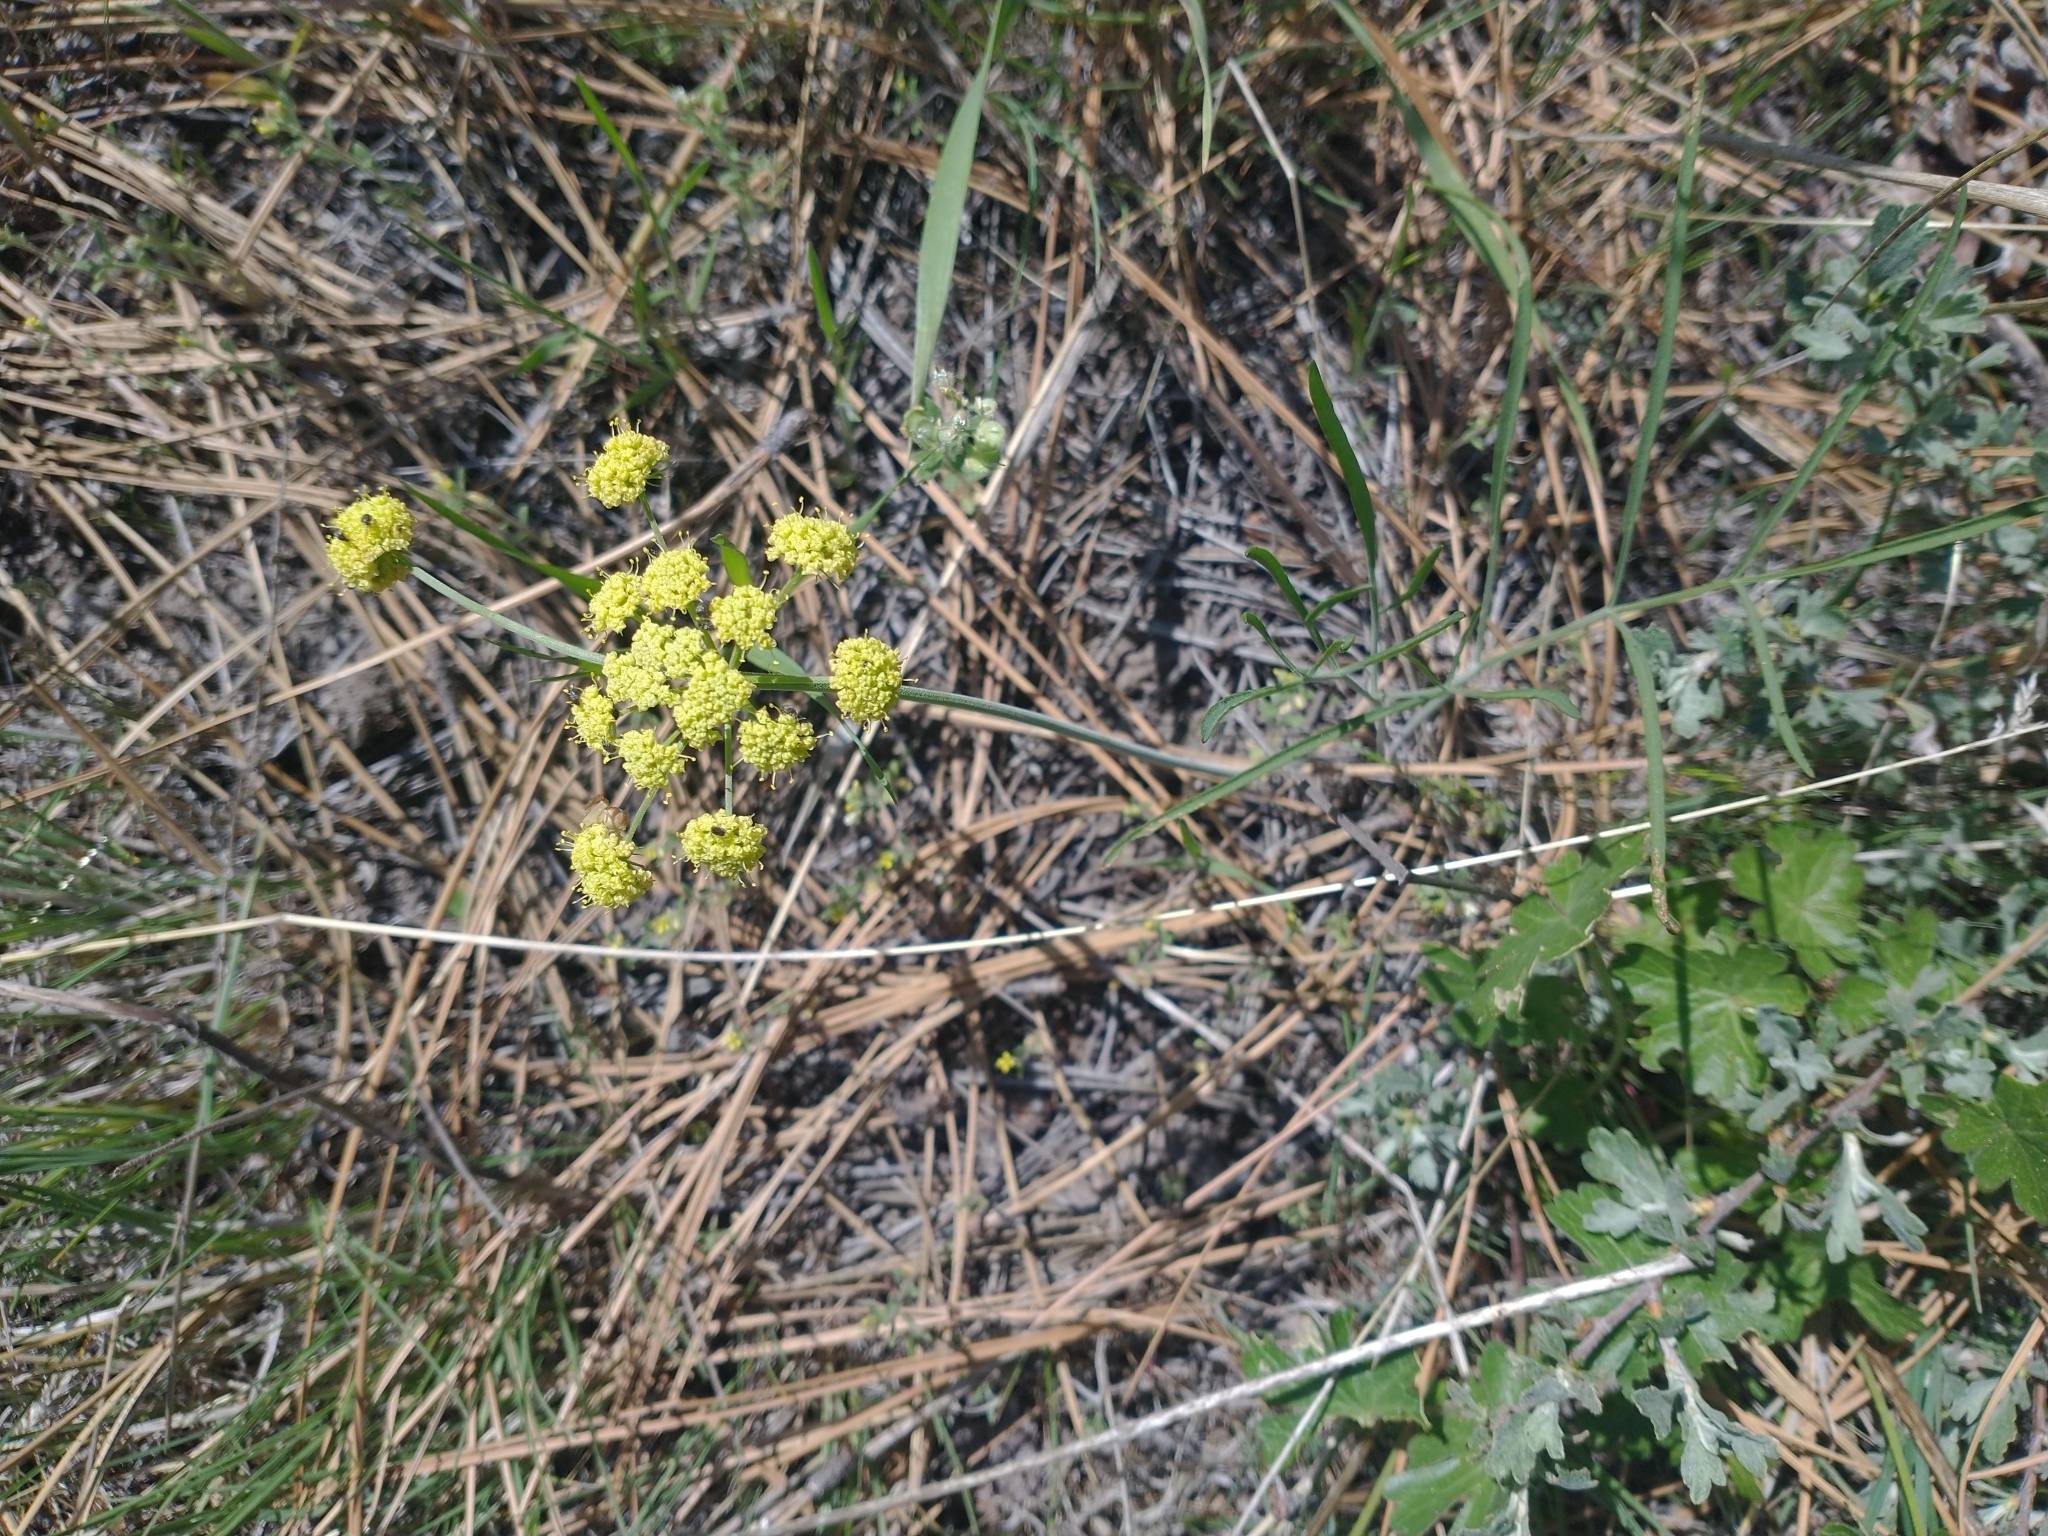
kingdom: Plantae
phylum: Tracheophyta
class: Magnoliopsida
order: Apiales
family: Apiaceae
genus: Lomatium
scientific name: Lomatium triternatum
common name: Ternate lomatium
